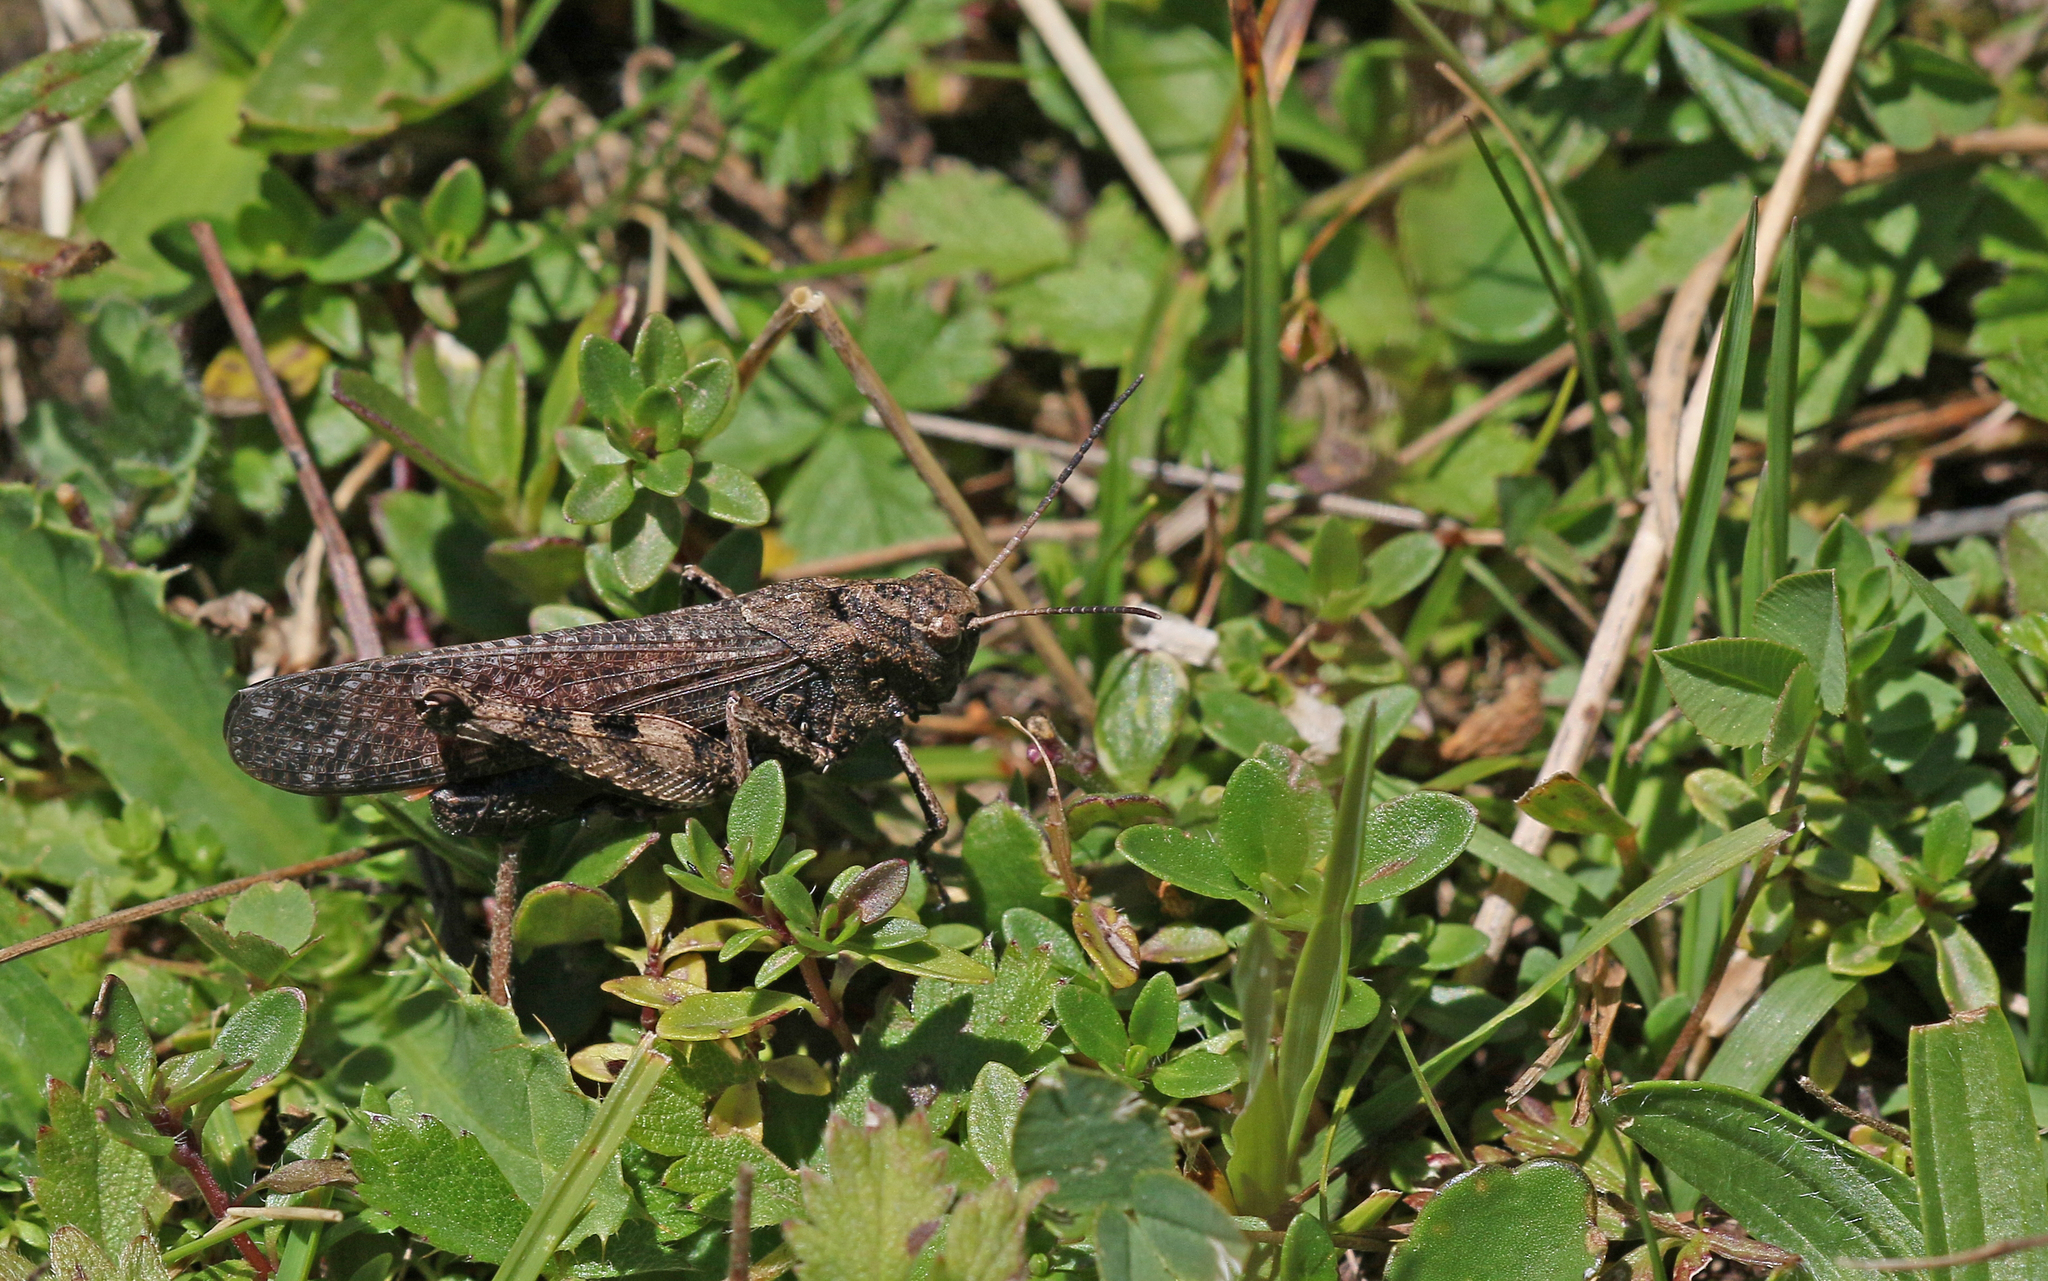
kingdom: Animalia
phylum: Arthropoda
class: Insecta
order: Orthoptera
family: Acrididae
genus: Psophus
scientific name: Psophus stridulus
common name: Rattle grasshopper
